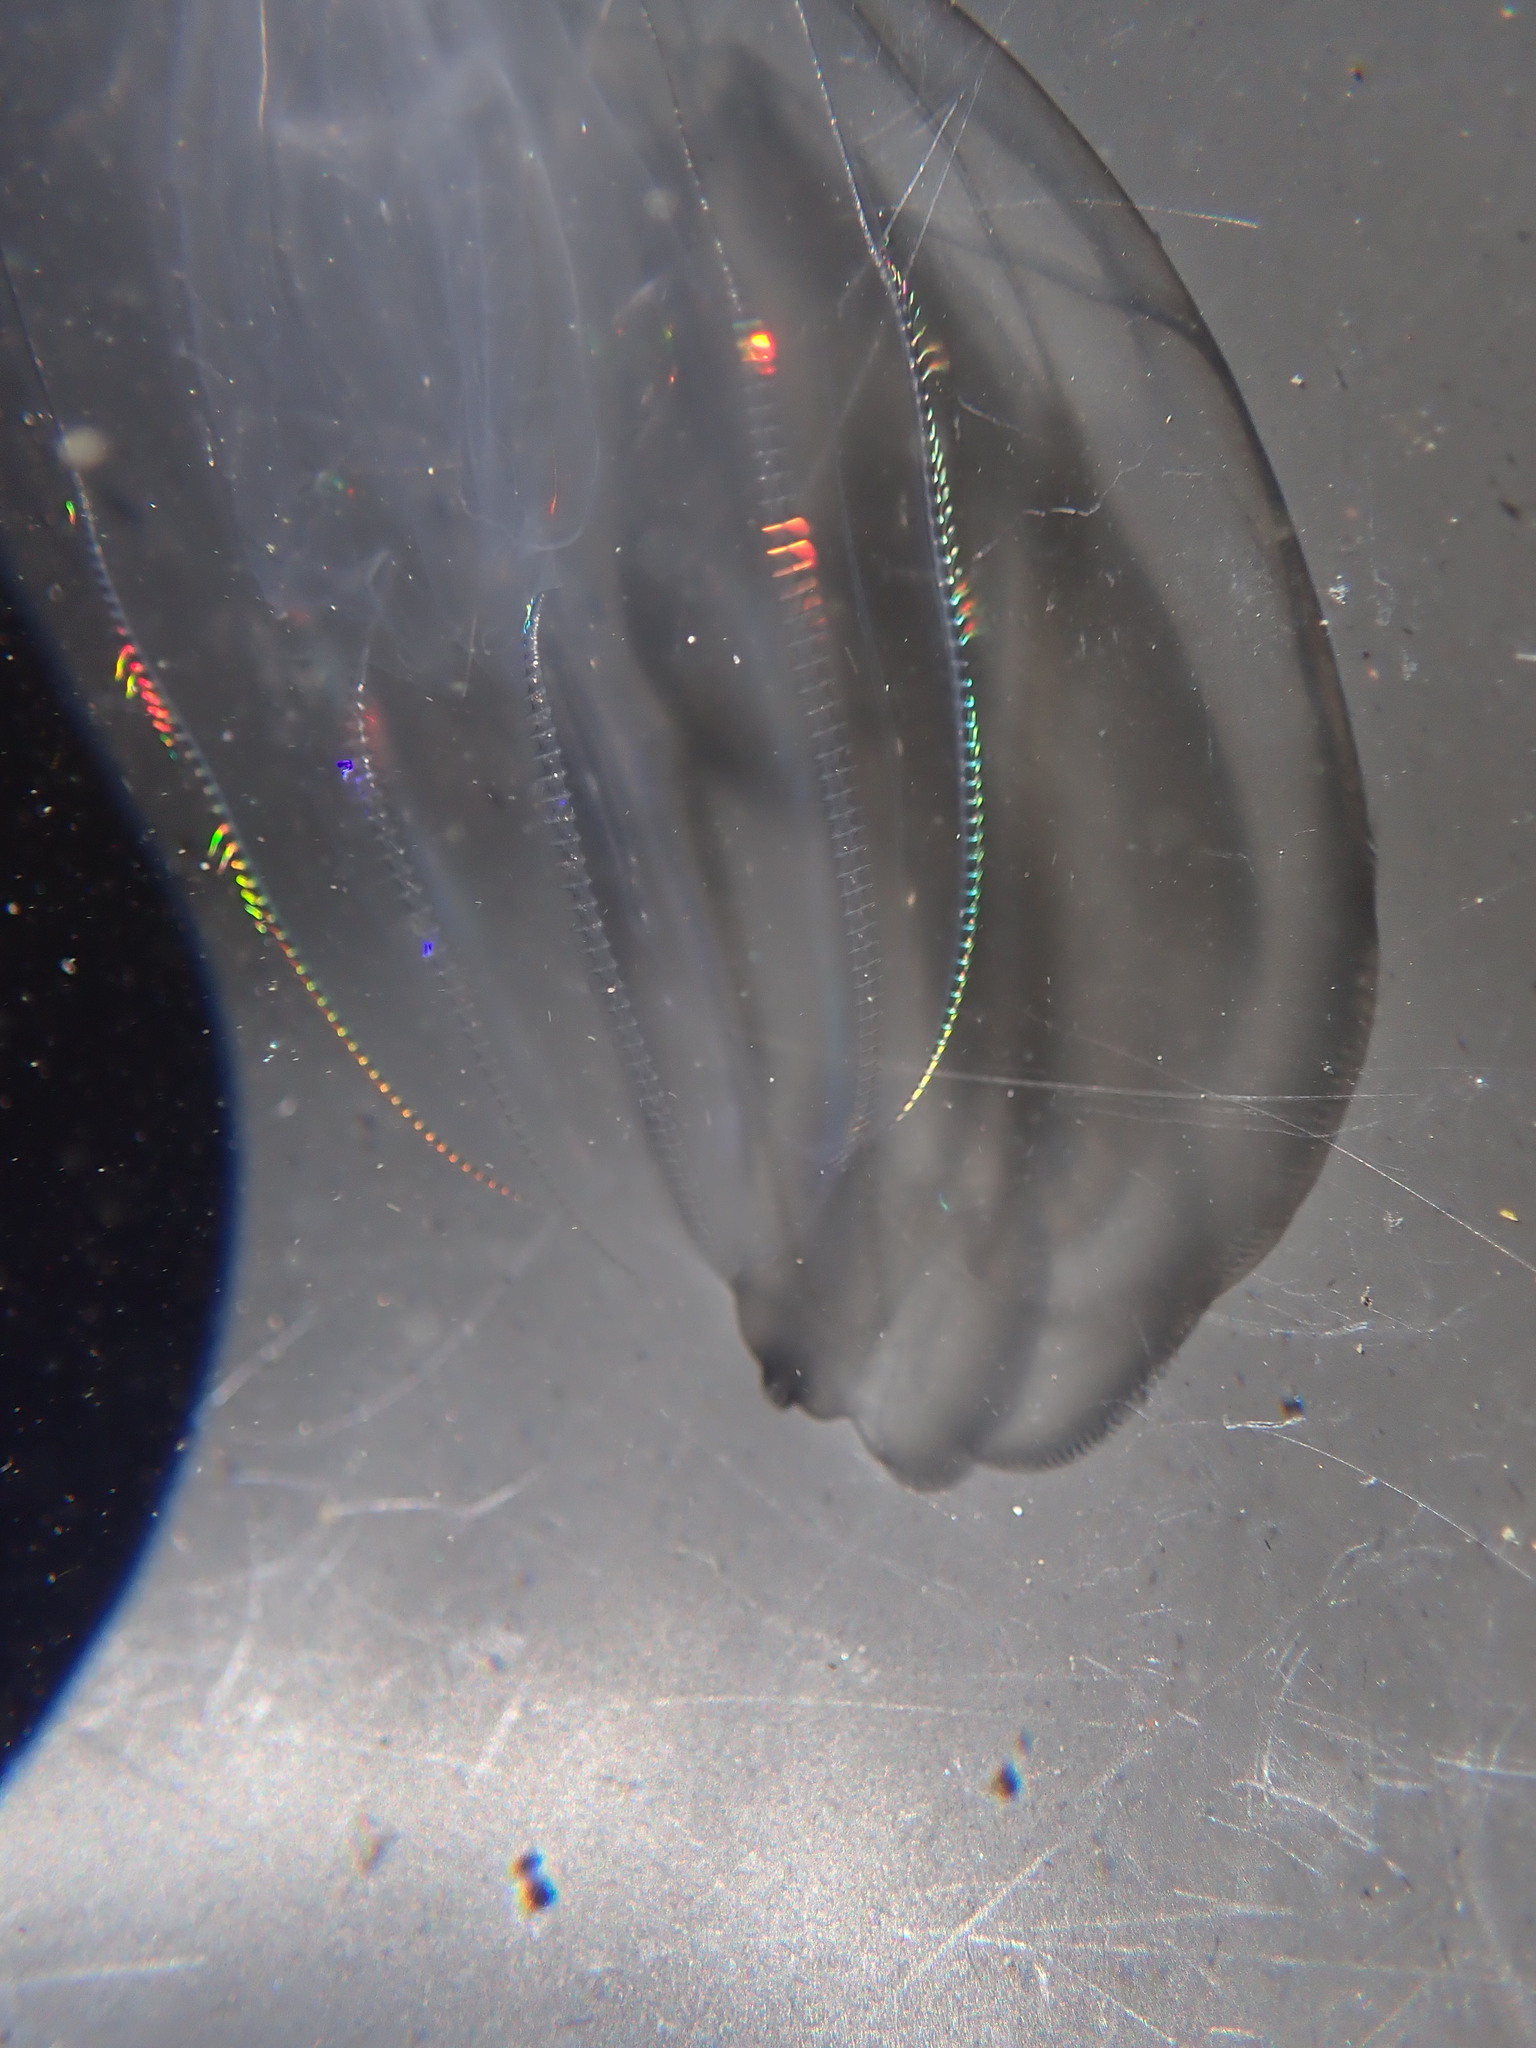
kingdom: Animalia
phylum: Ctenophora
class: Tentaculata
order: Lobata
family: Bolinopsidae
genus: Bolinopsis
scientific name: Bolinopsis microptera
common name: Short-lobed comb jelly
